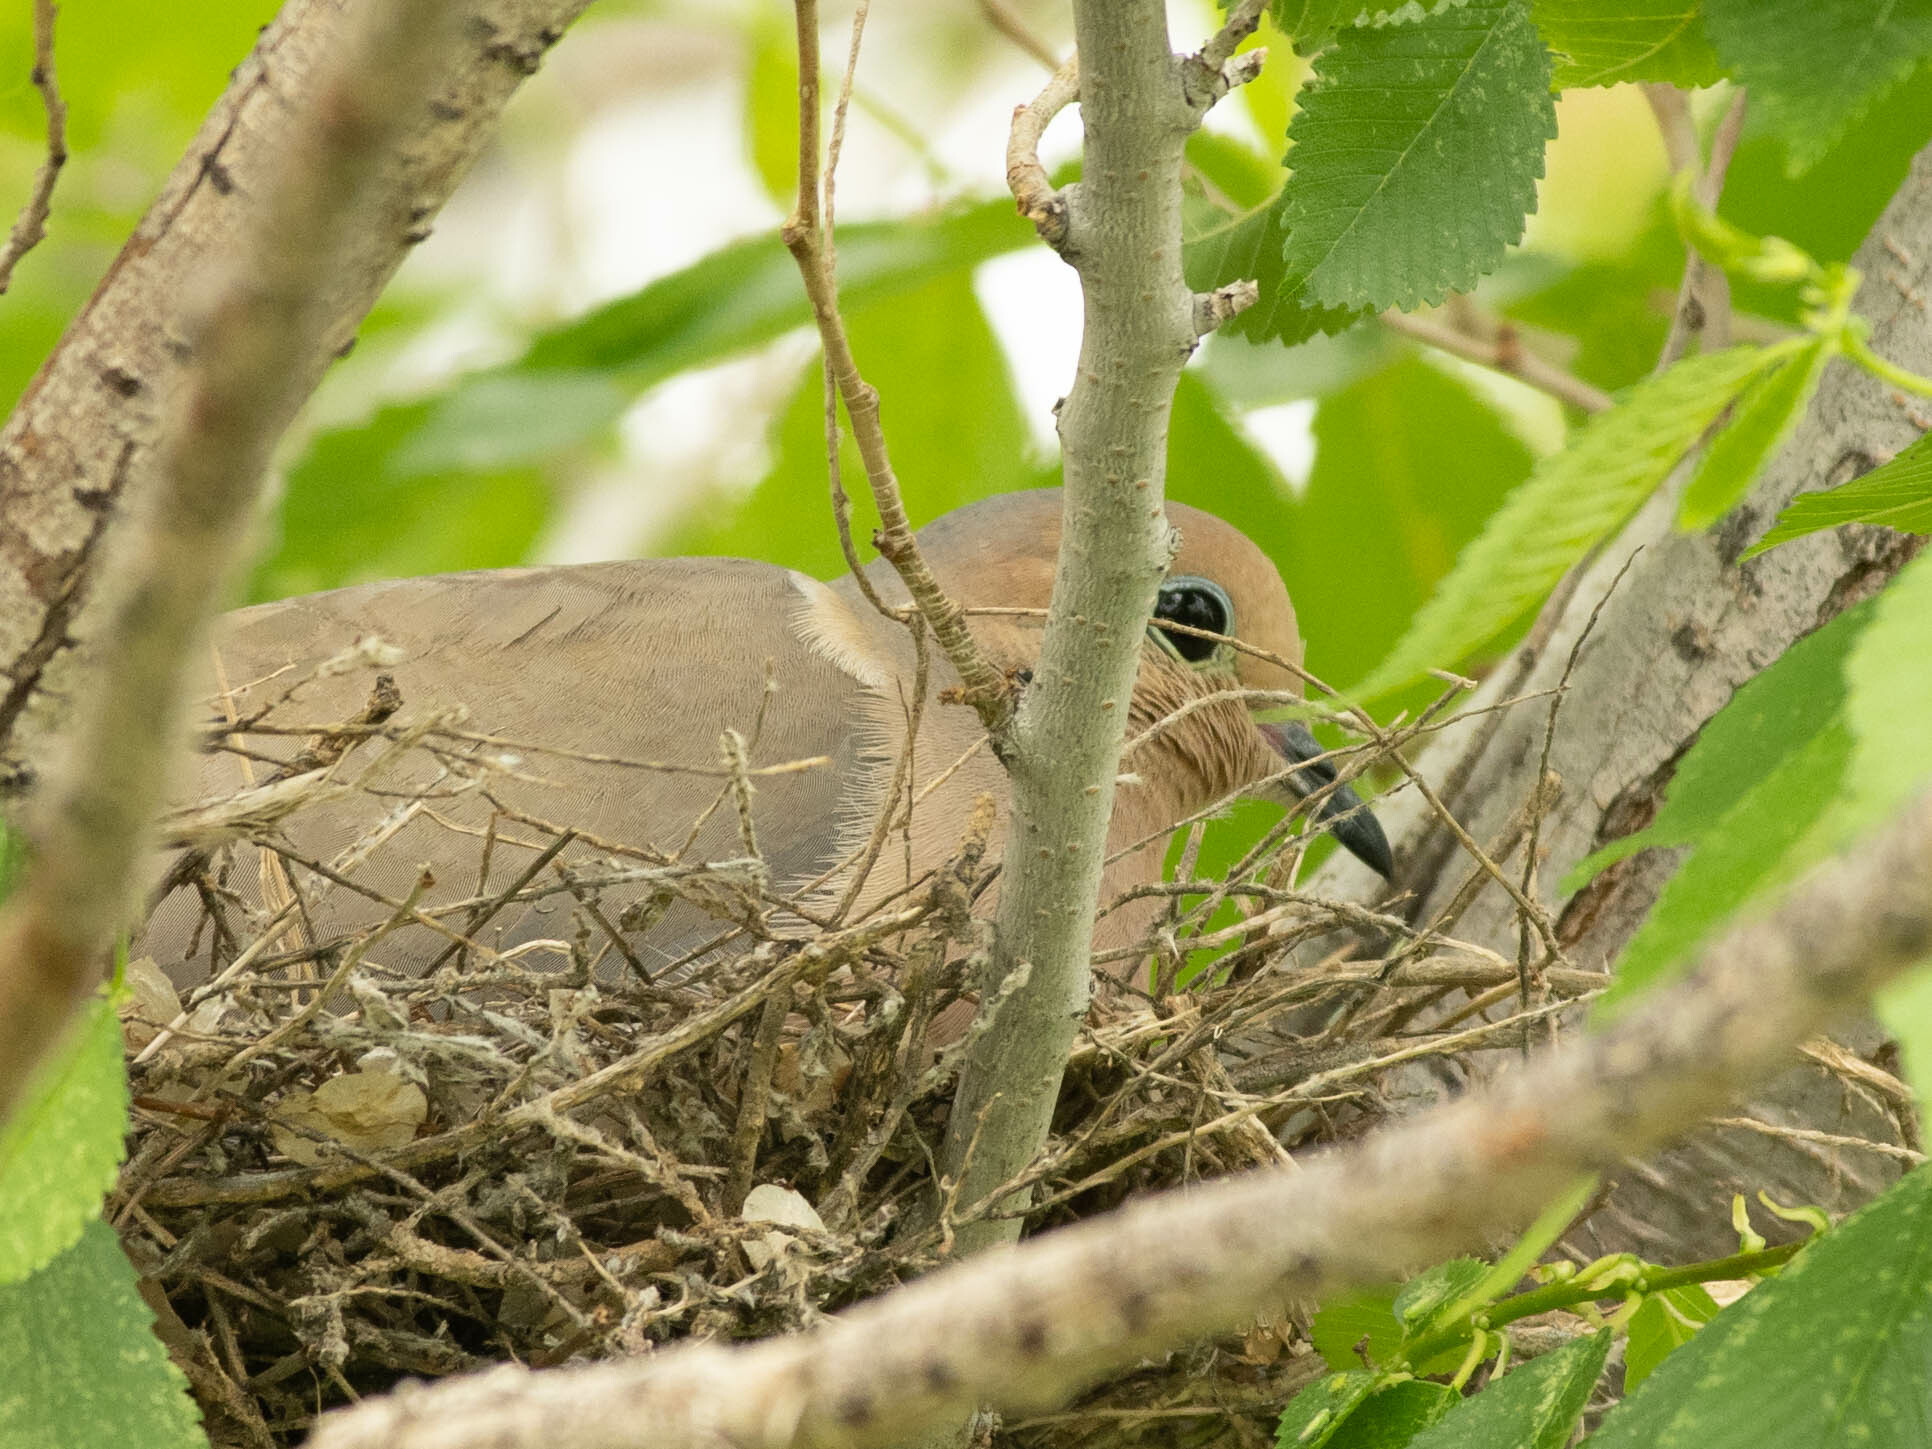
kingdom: Animalia
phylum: Chordata
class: Aves
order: Columbiformes
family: Columbidae
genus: Zenaida
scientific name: Zenaida macroura
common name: Mourning dove
